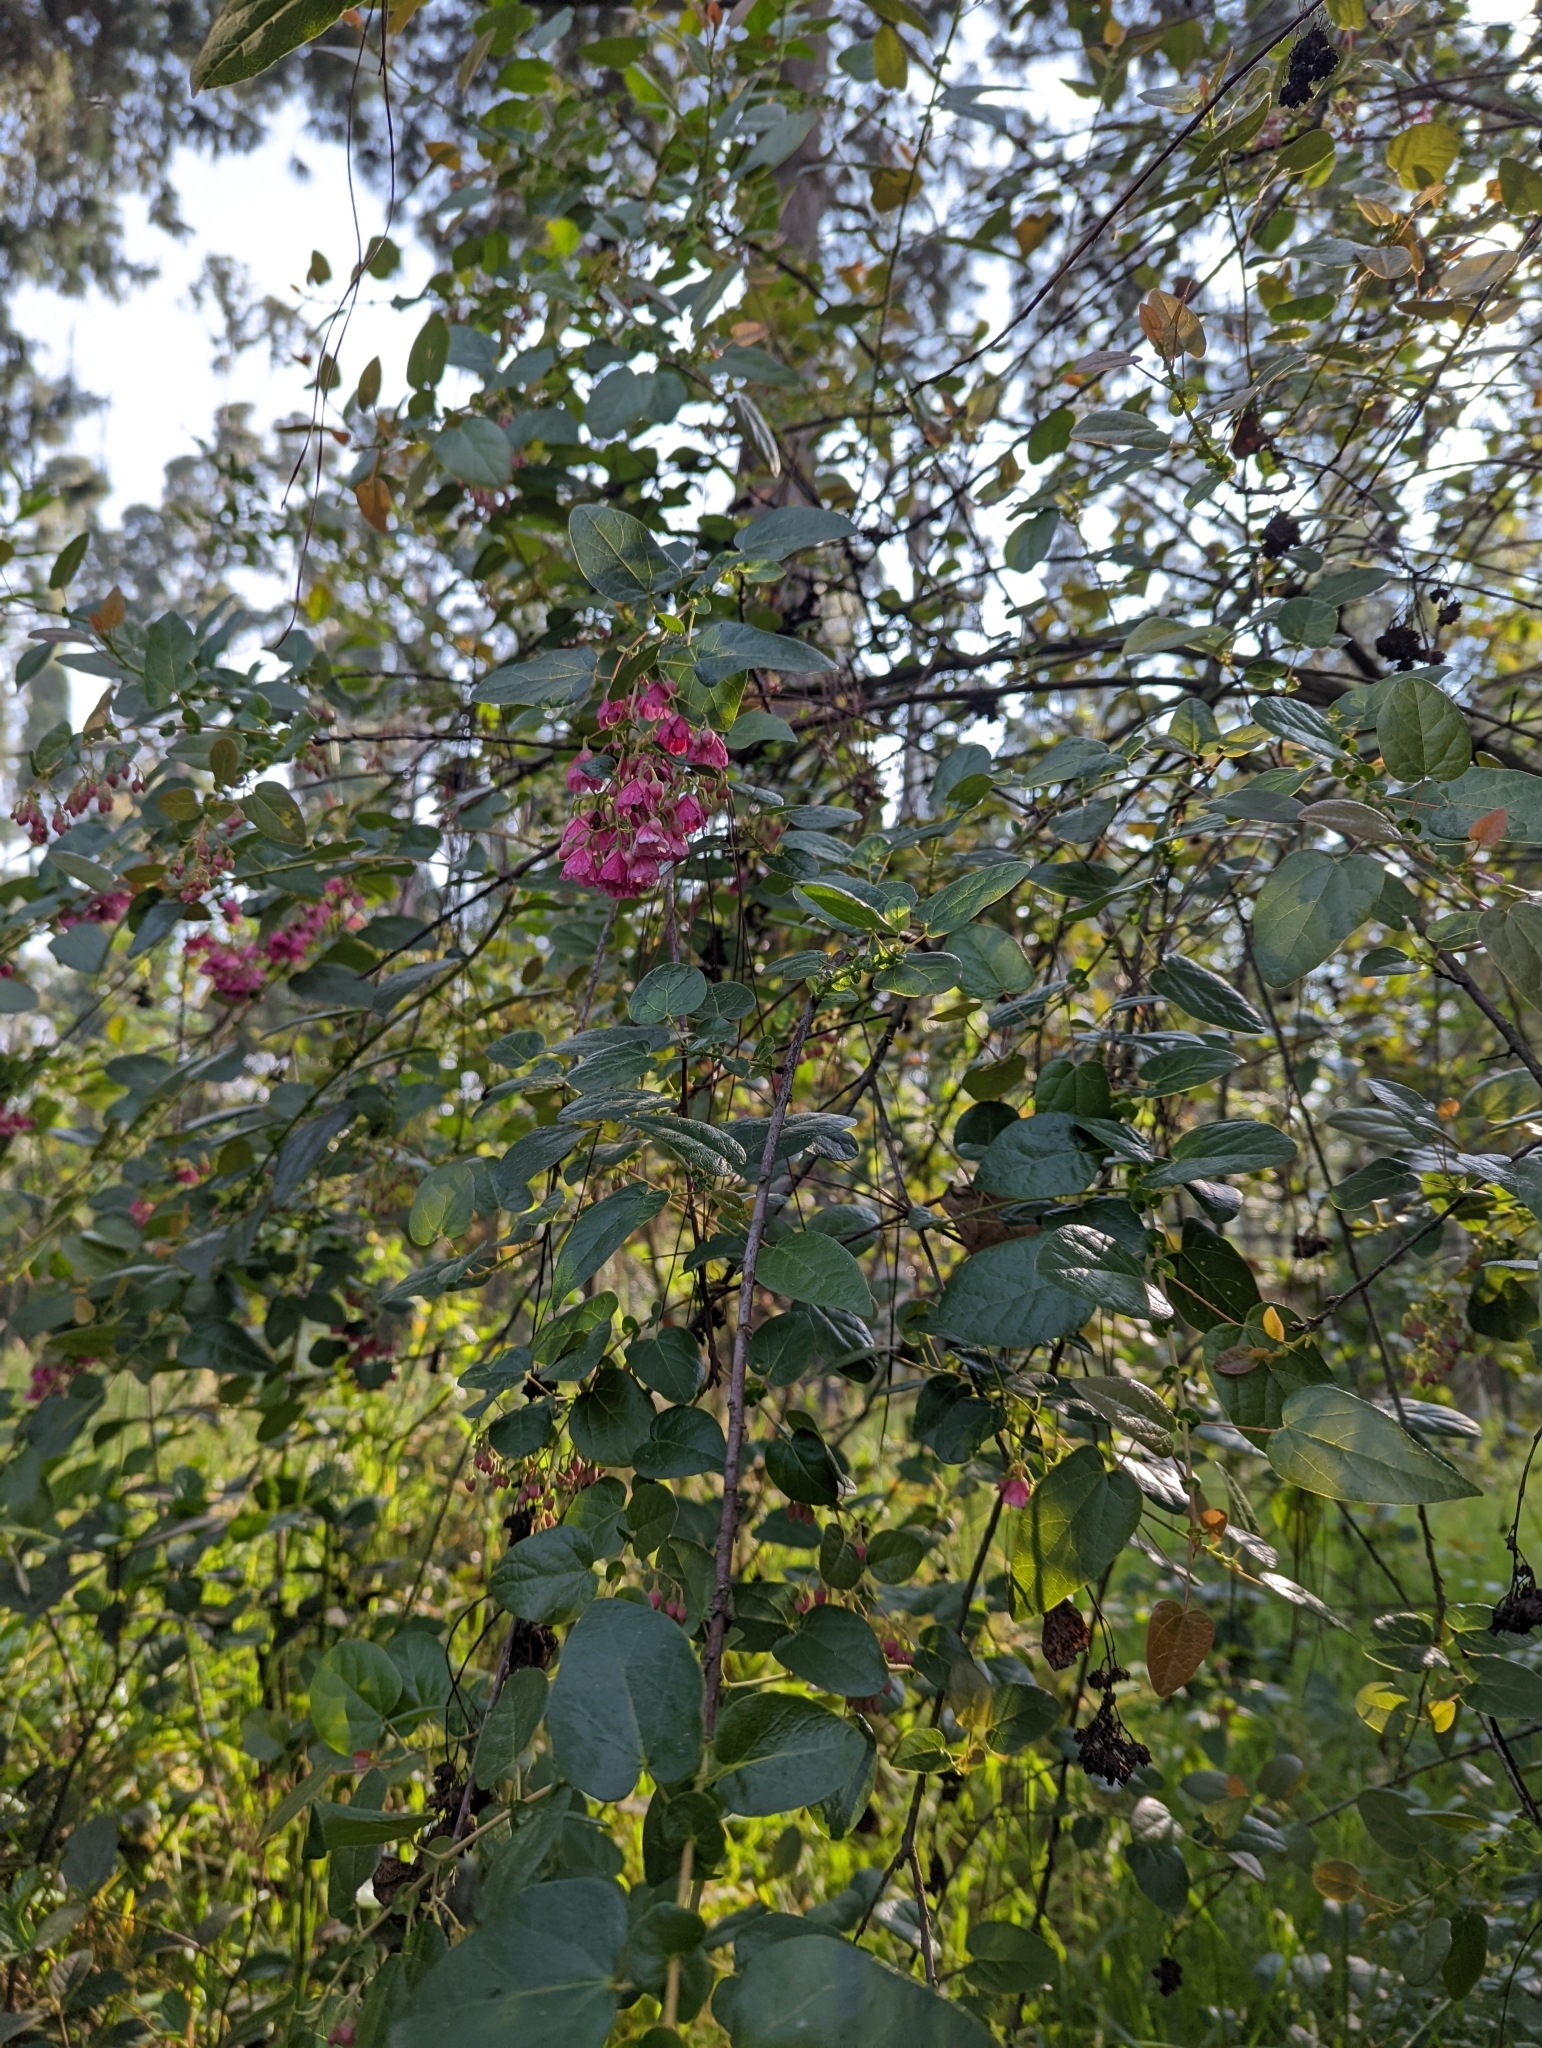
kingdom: Plantae
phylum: Tracheophyta
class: Magnoliopsida
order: Oxalidales
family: Elaeocarpaceae
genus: Vallea
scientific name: Vallea stipularis
